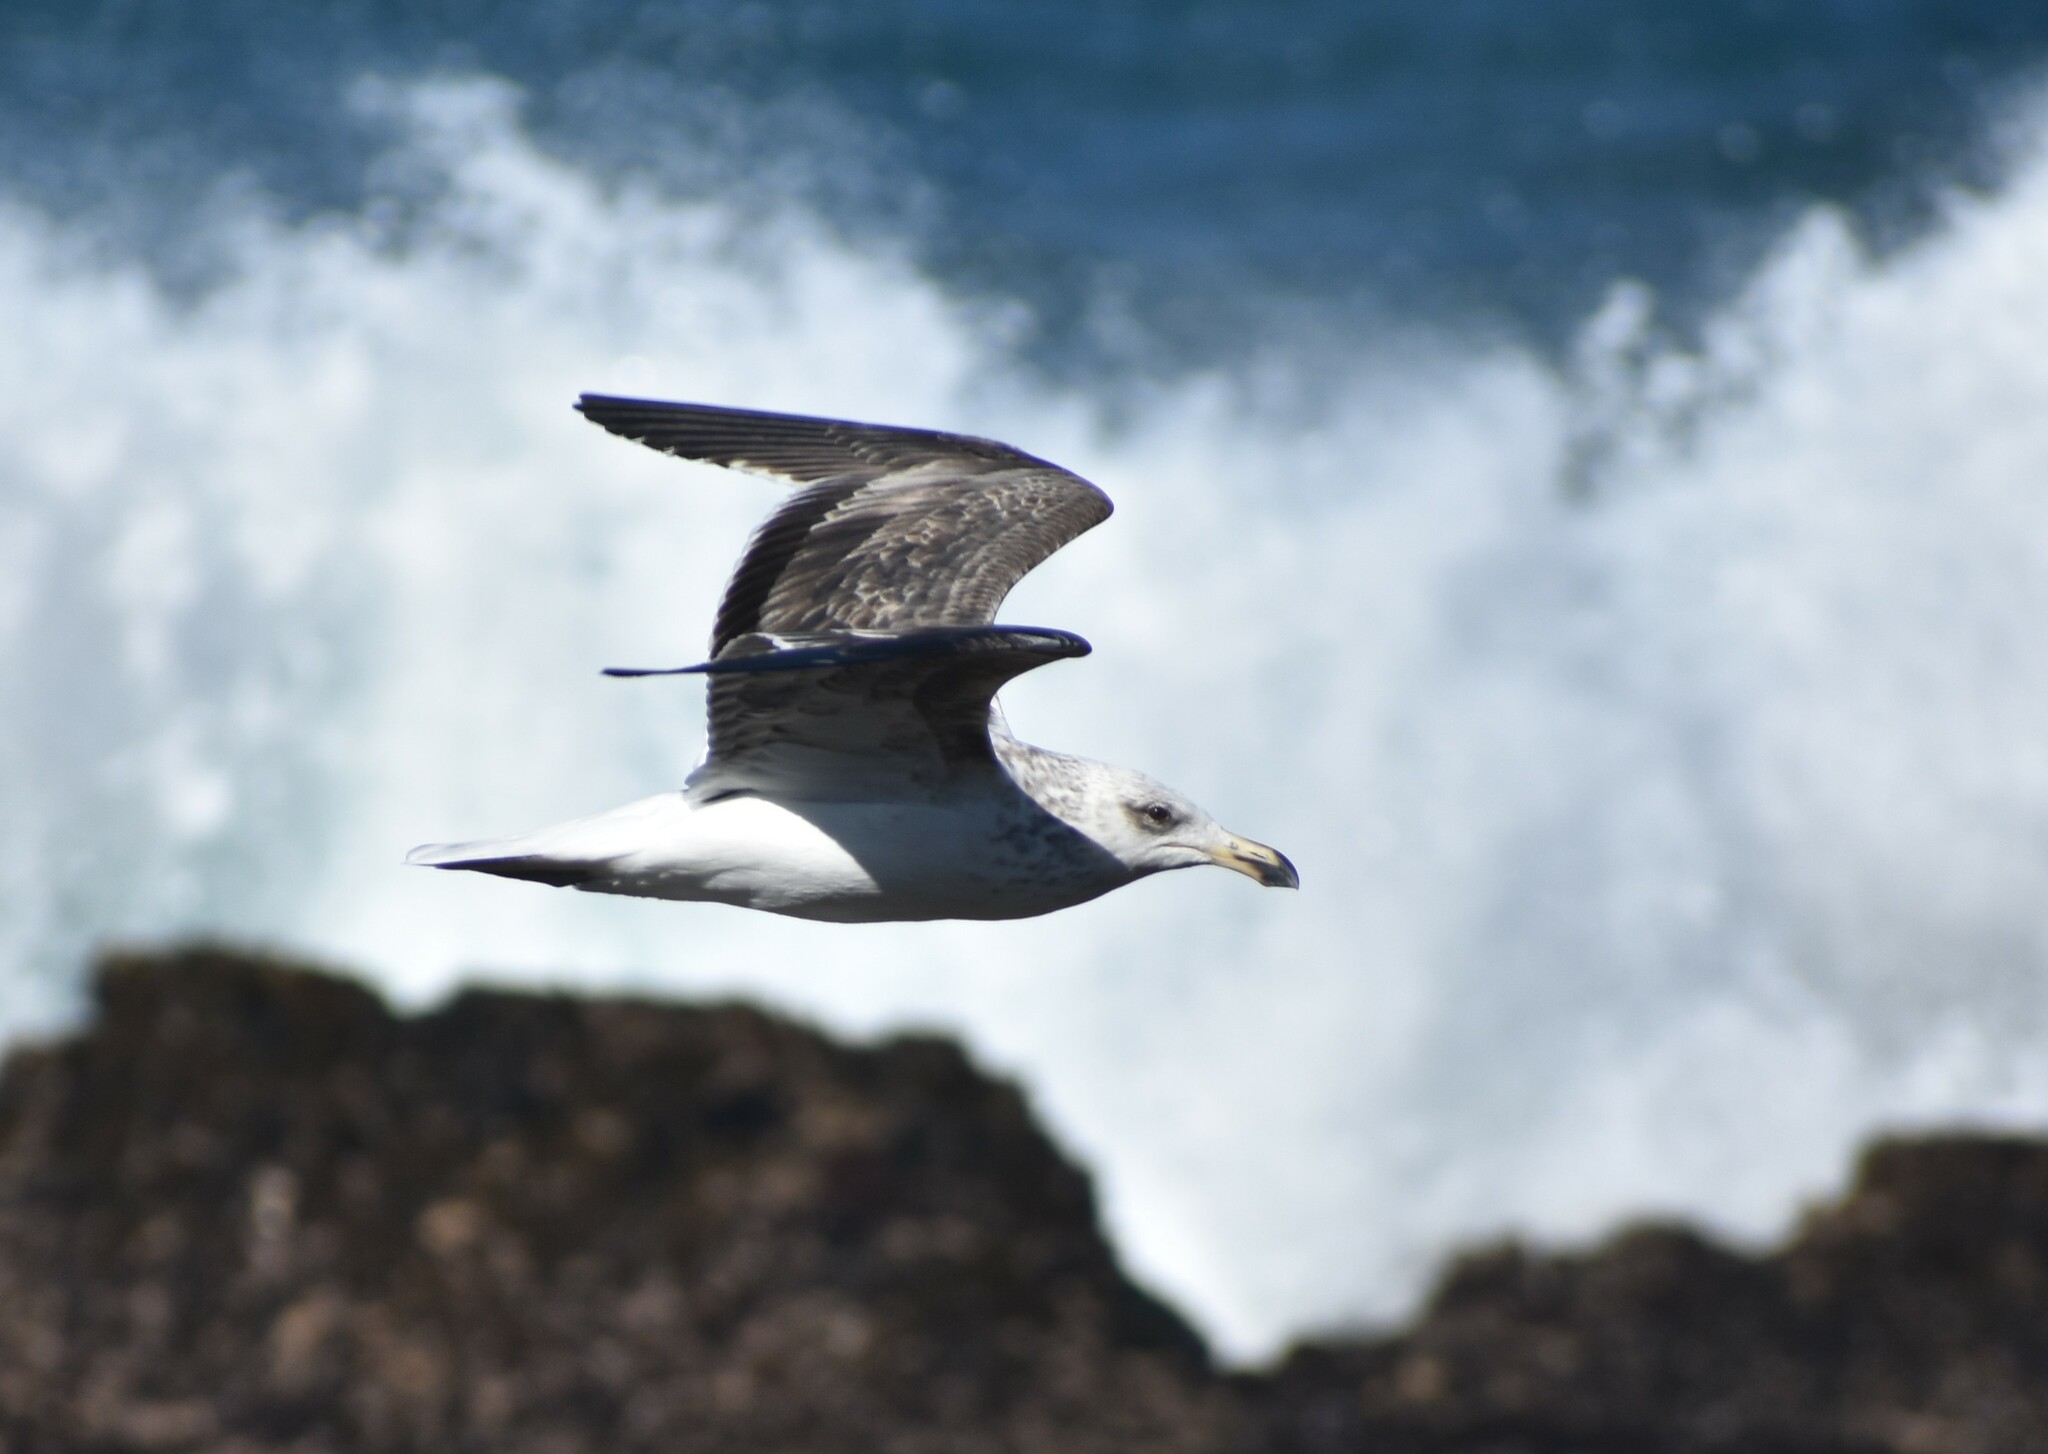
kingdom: Animalia
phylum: Chordata
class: Aves
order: Charadriiformes
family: Laridae
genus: Larus
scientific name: Larus dominicanus
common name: Kelp gull
